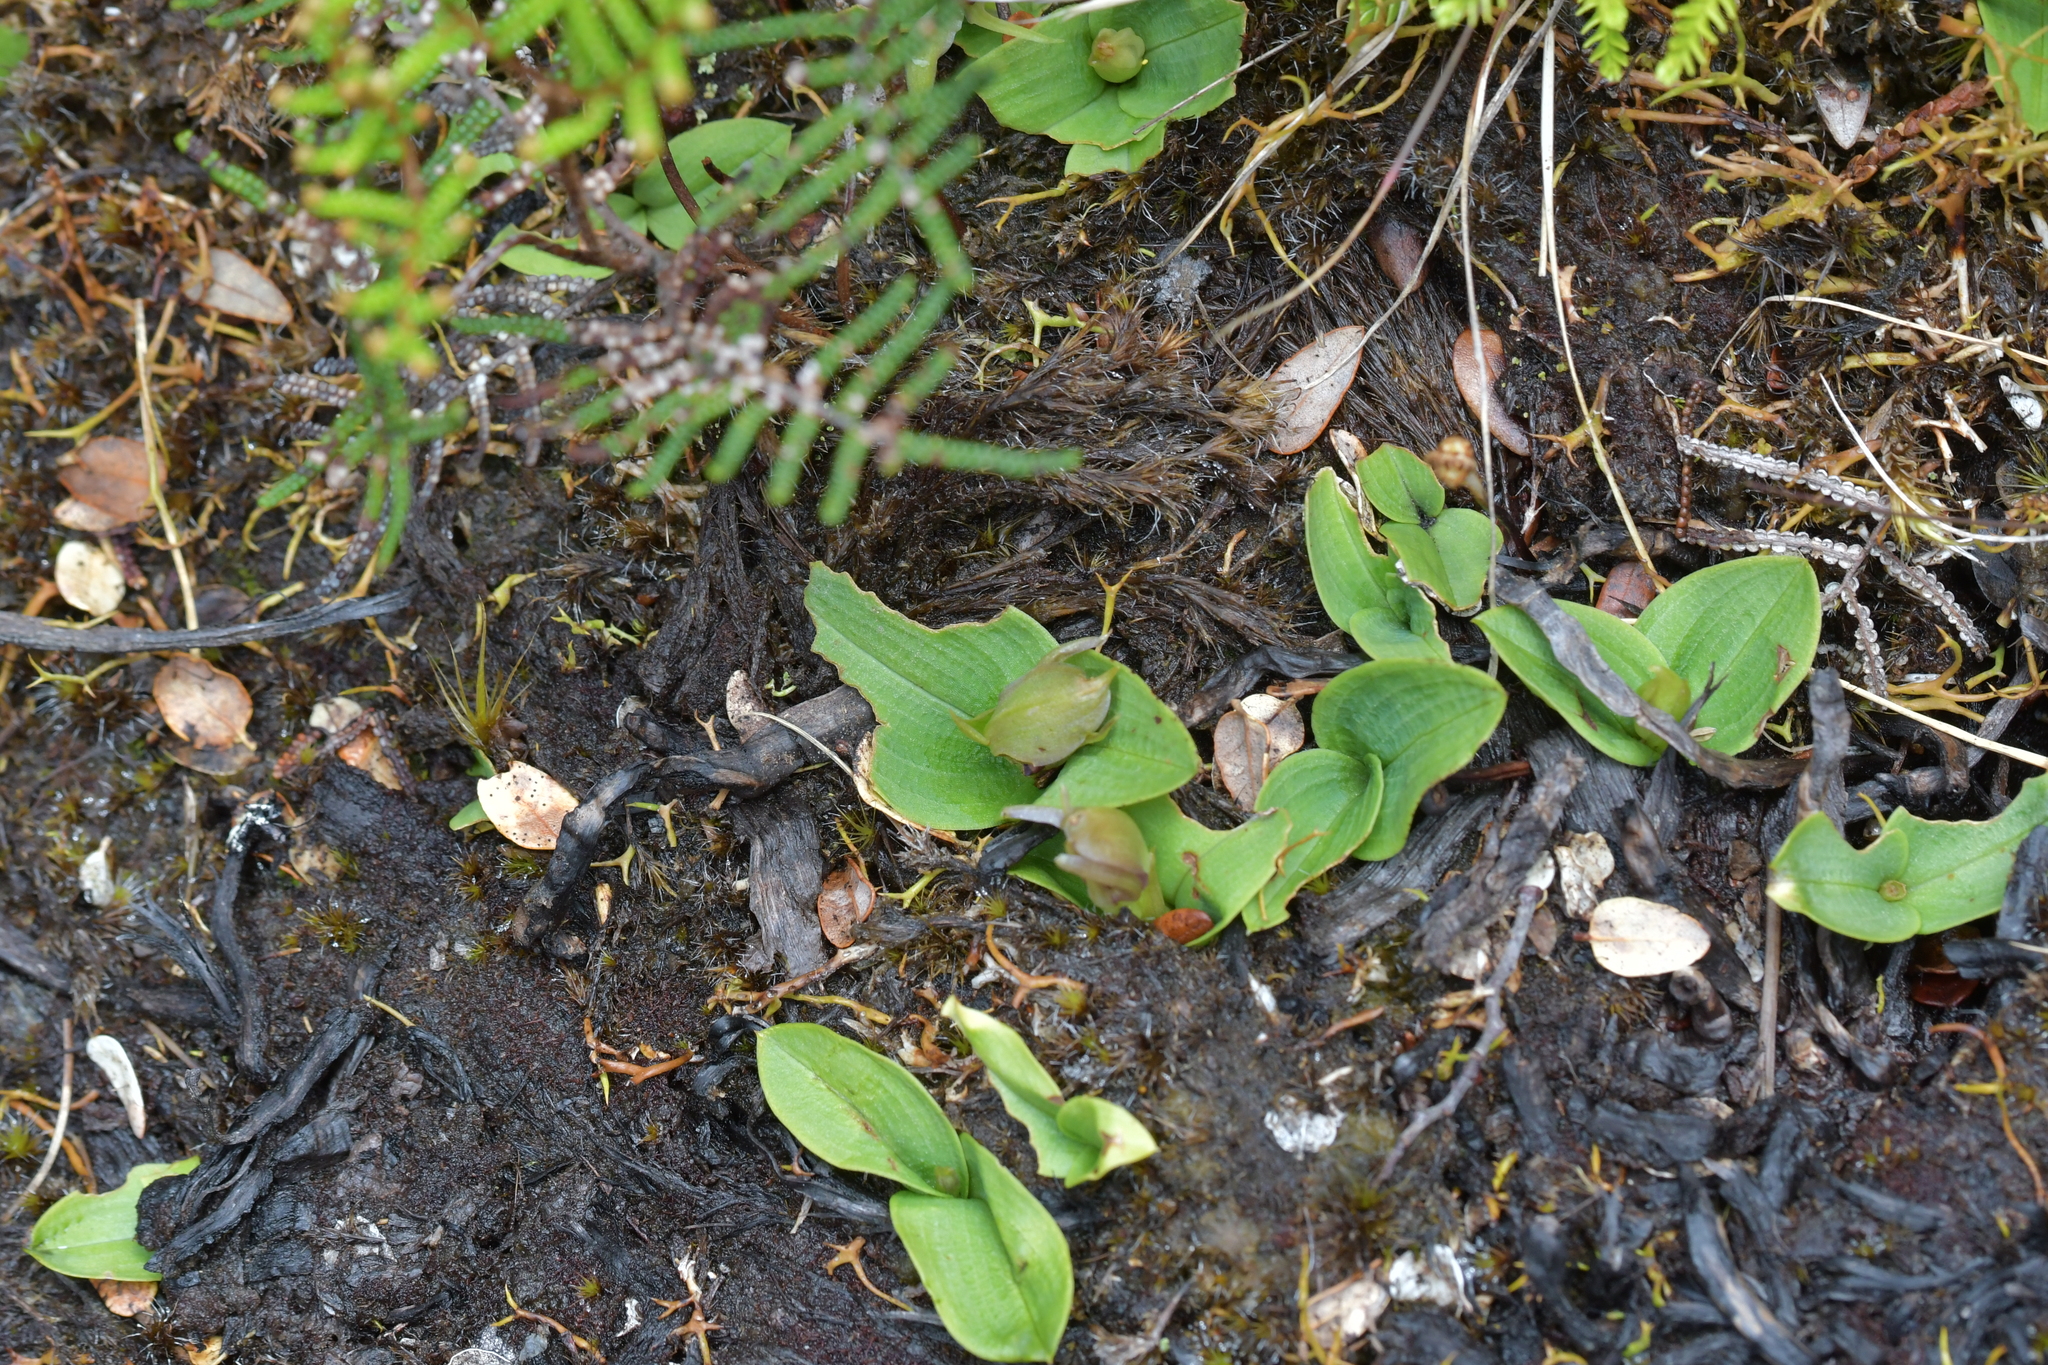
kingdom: Plantae
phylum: Tracheophyta
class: Liliopsida
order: Asparagales
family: Orchidaceae
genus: Chiloglottis
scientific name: Chiloglottis cornuta
